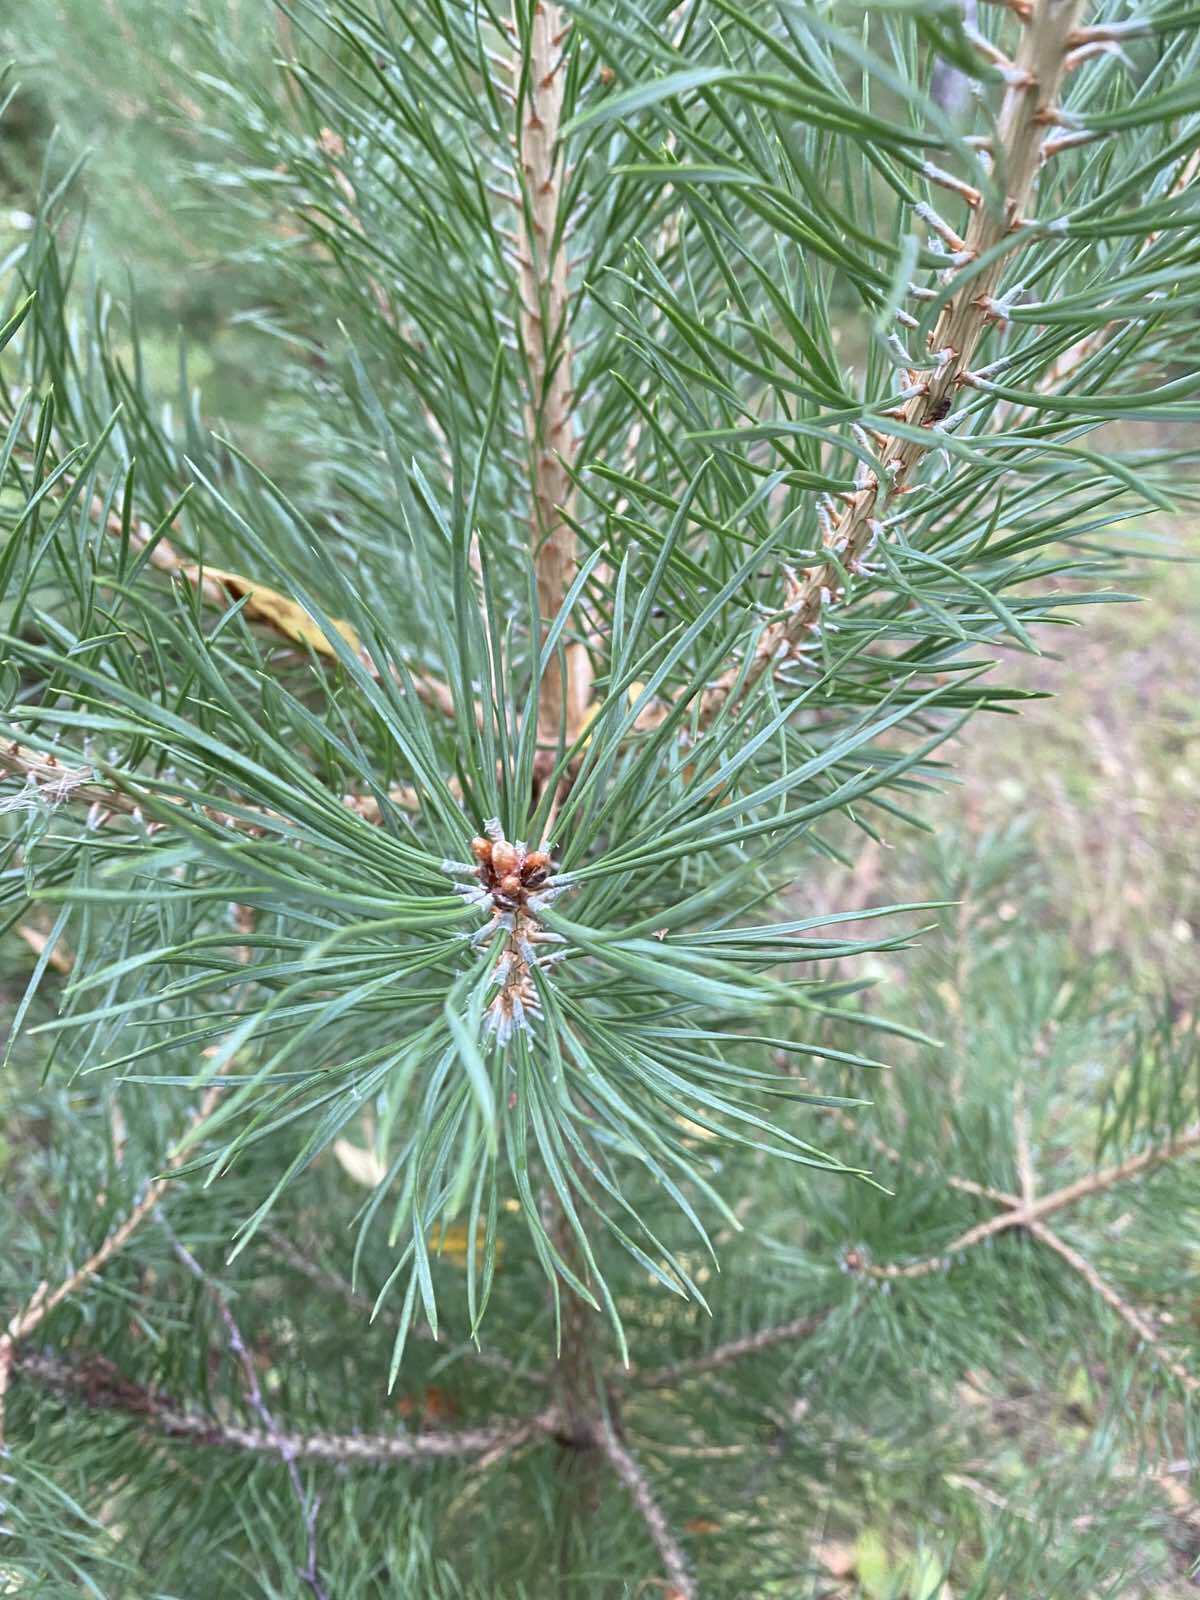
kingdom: Plantae
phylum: Tracheophyta
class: Pinopsida
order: Pinales
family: Pinaceae
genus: Pinus
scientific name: Pinus sylvestris
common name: Scots pine
